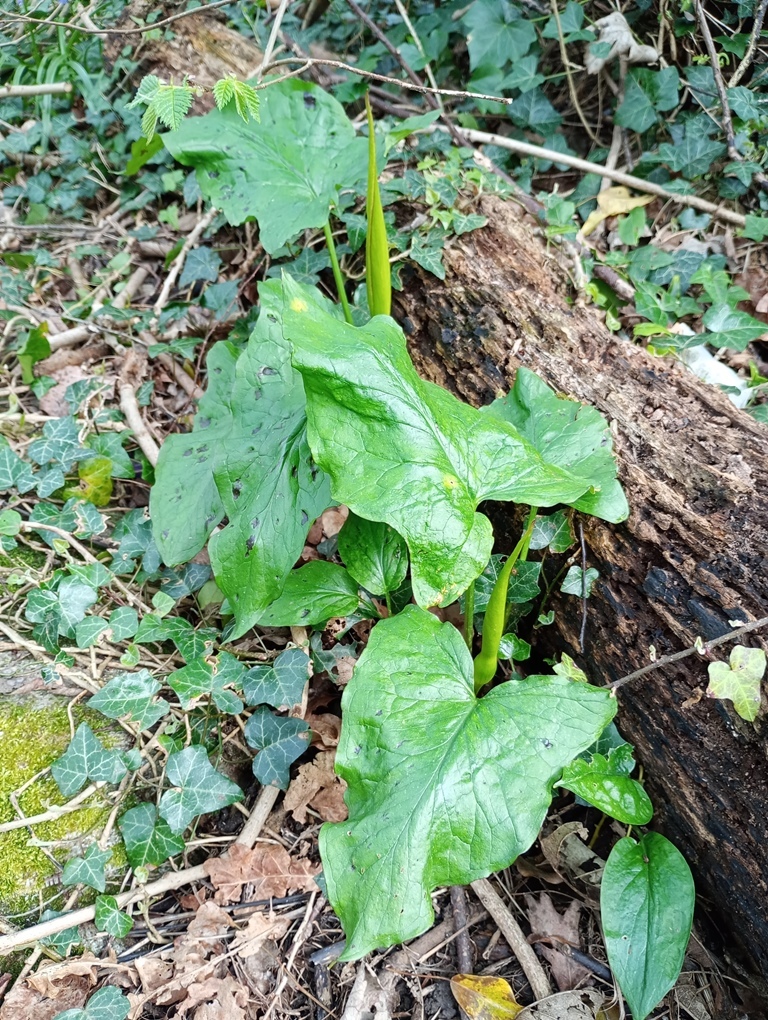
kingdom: Plantae
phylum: Tracheophyta
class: Liliopsida
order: Alismatales
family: Araceae
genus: Arum
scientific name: Arum maculatum
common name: Lords-and-ladies
